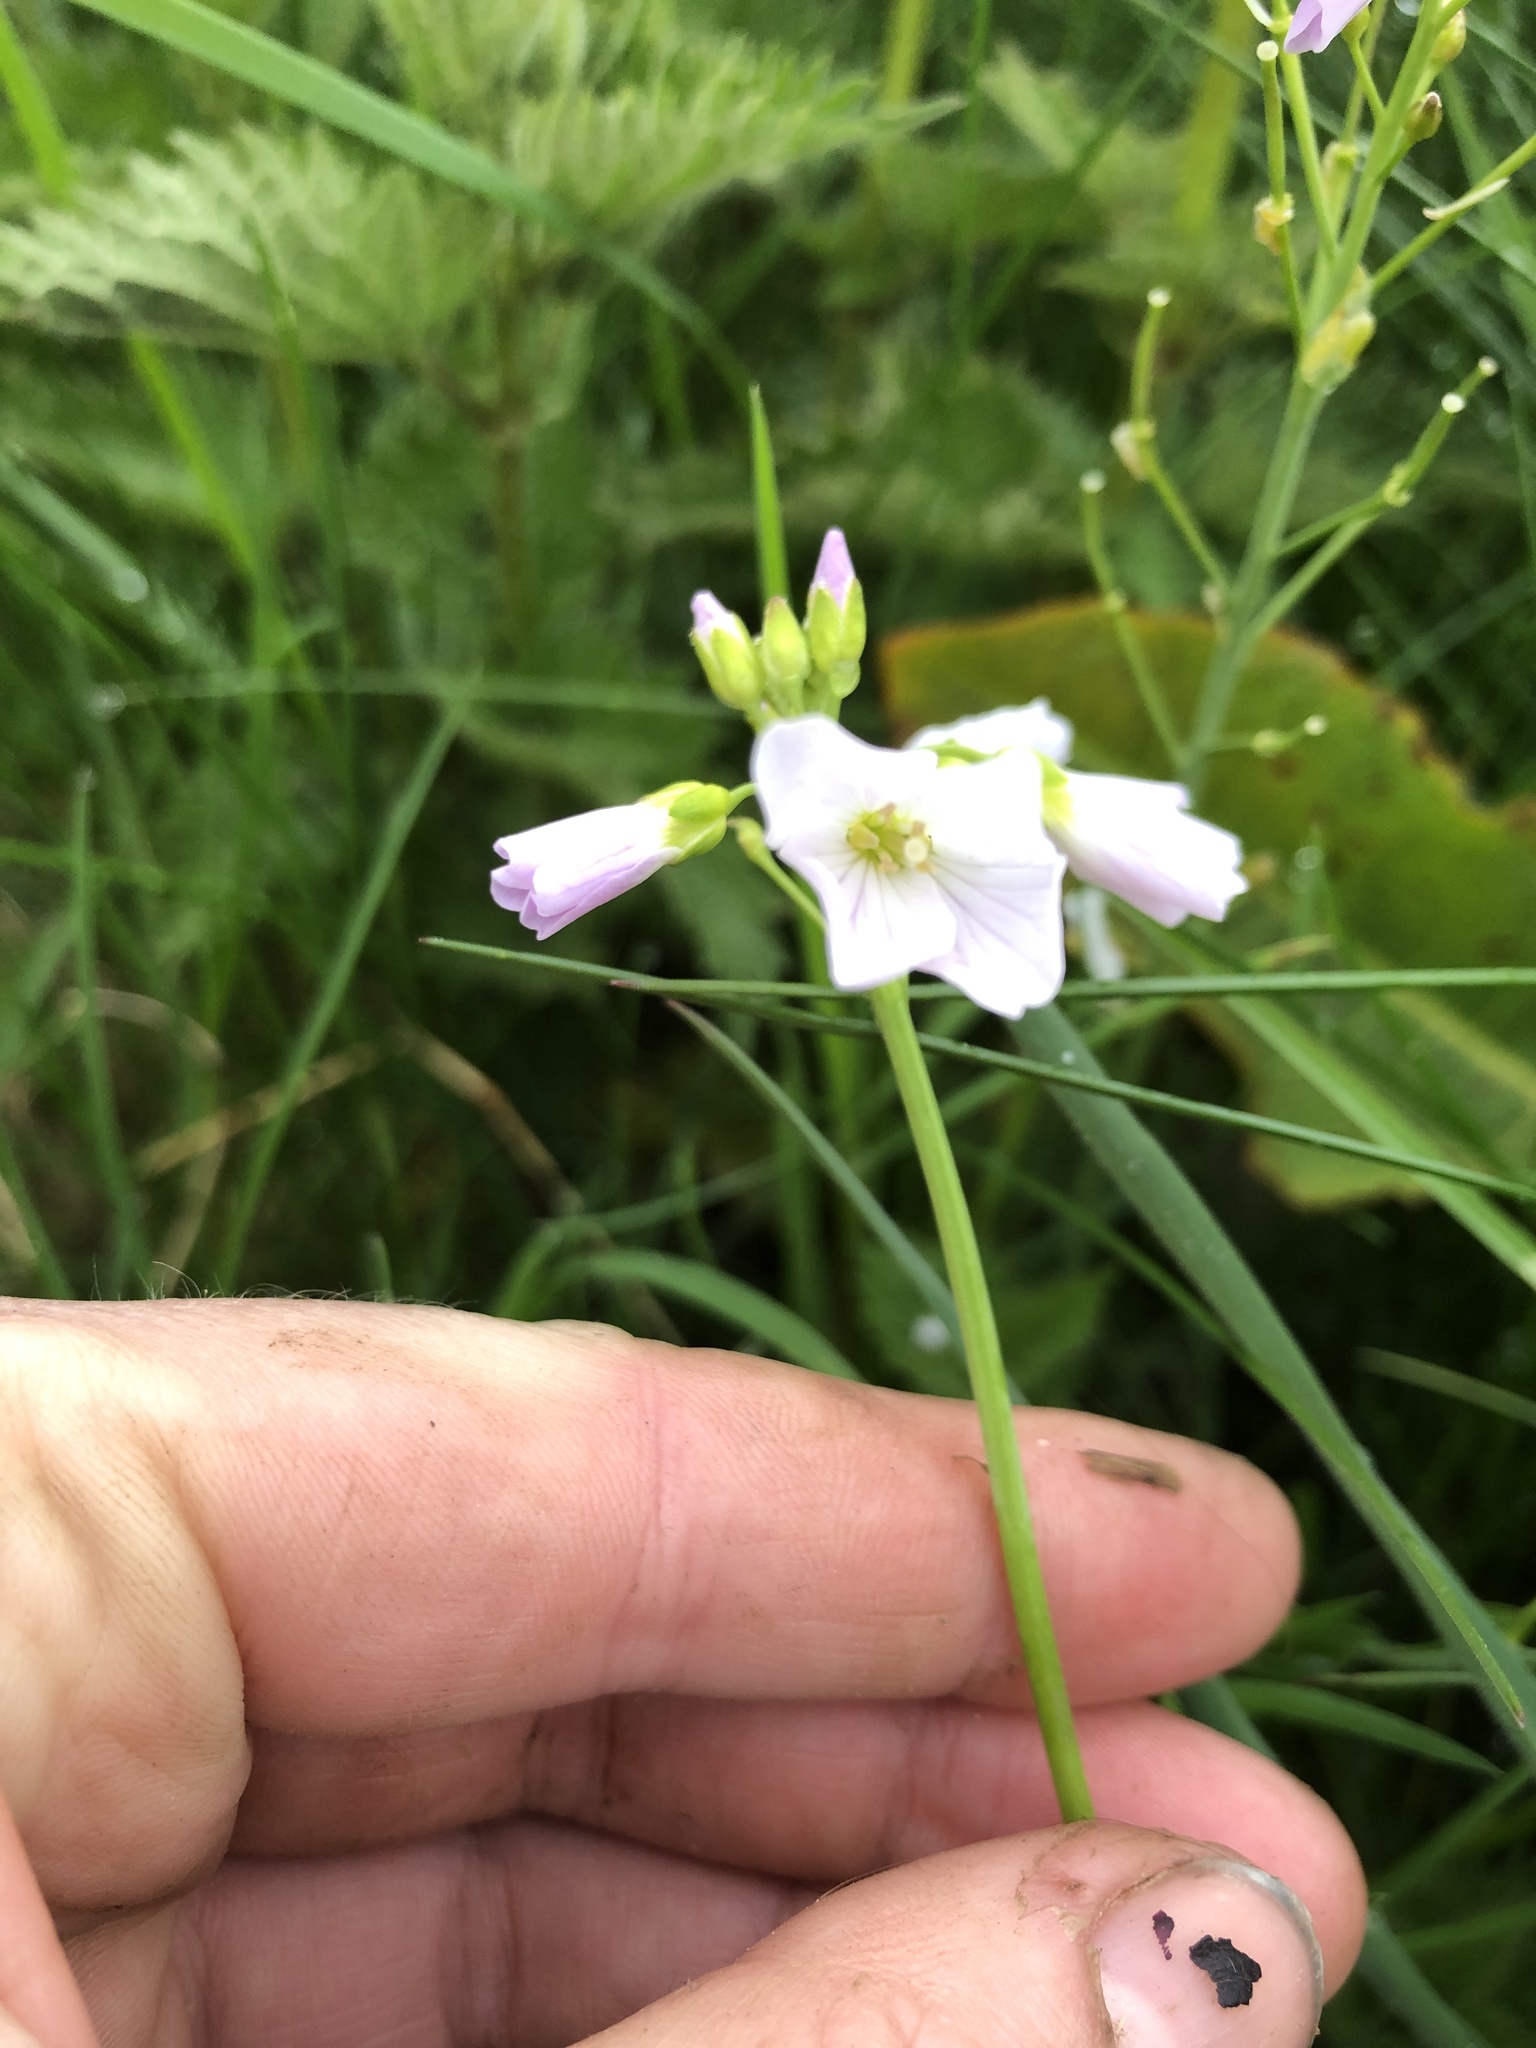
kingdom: Plantae
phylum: Tracheophyta
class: Magnoliopsida
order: Brassicales
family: Brassicaceae
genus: Cardamine
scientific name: Cardamine pratensis
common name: Cuckoo flower
